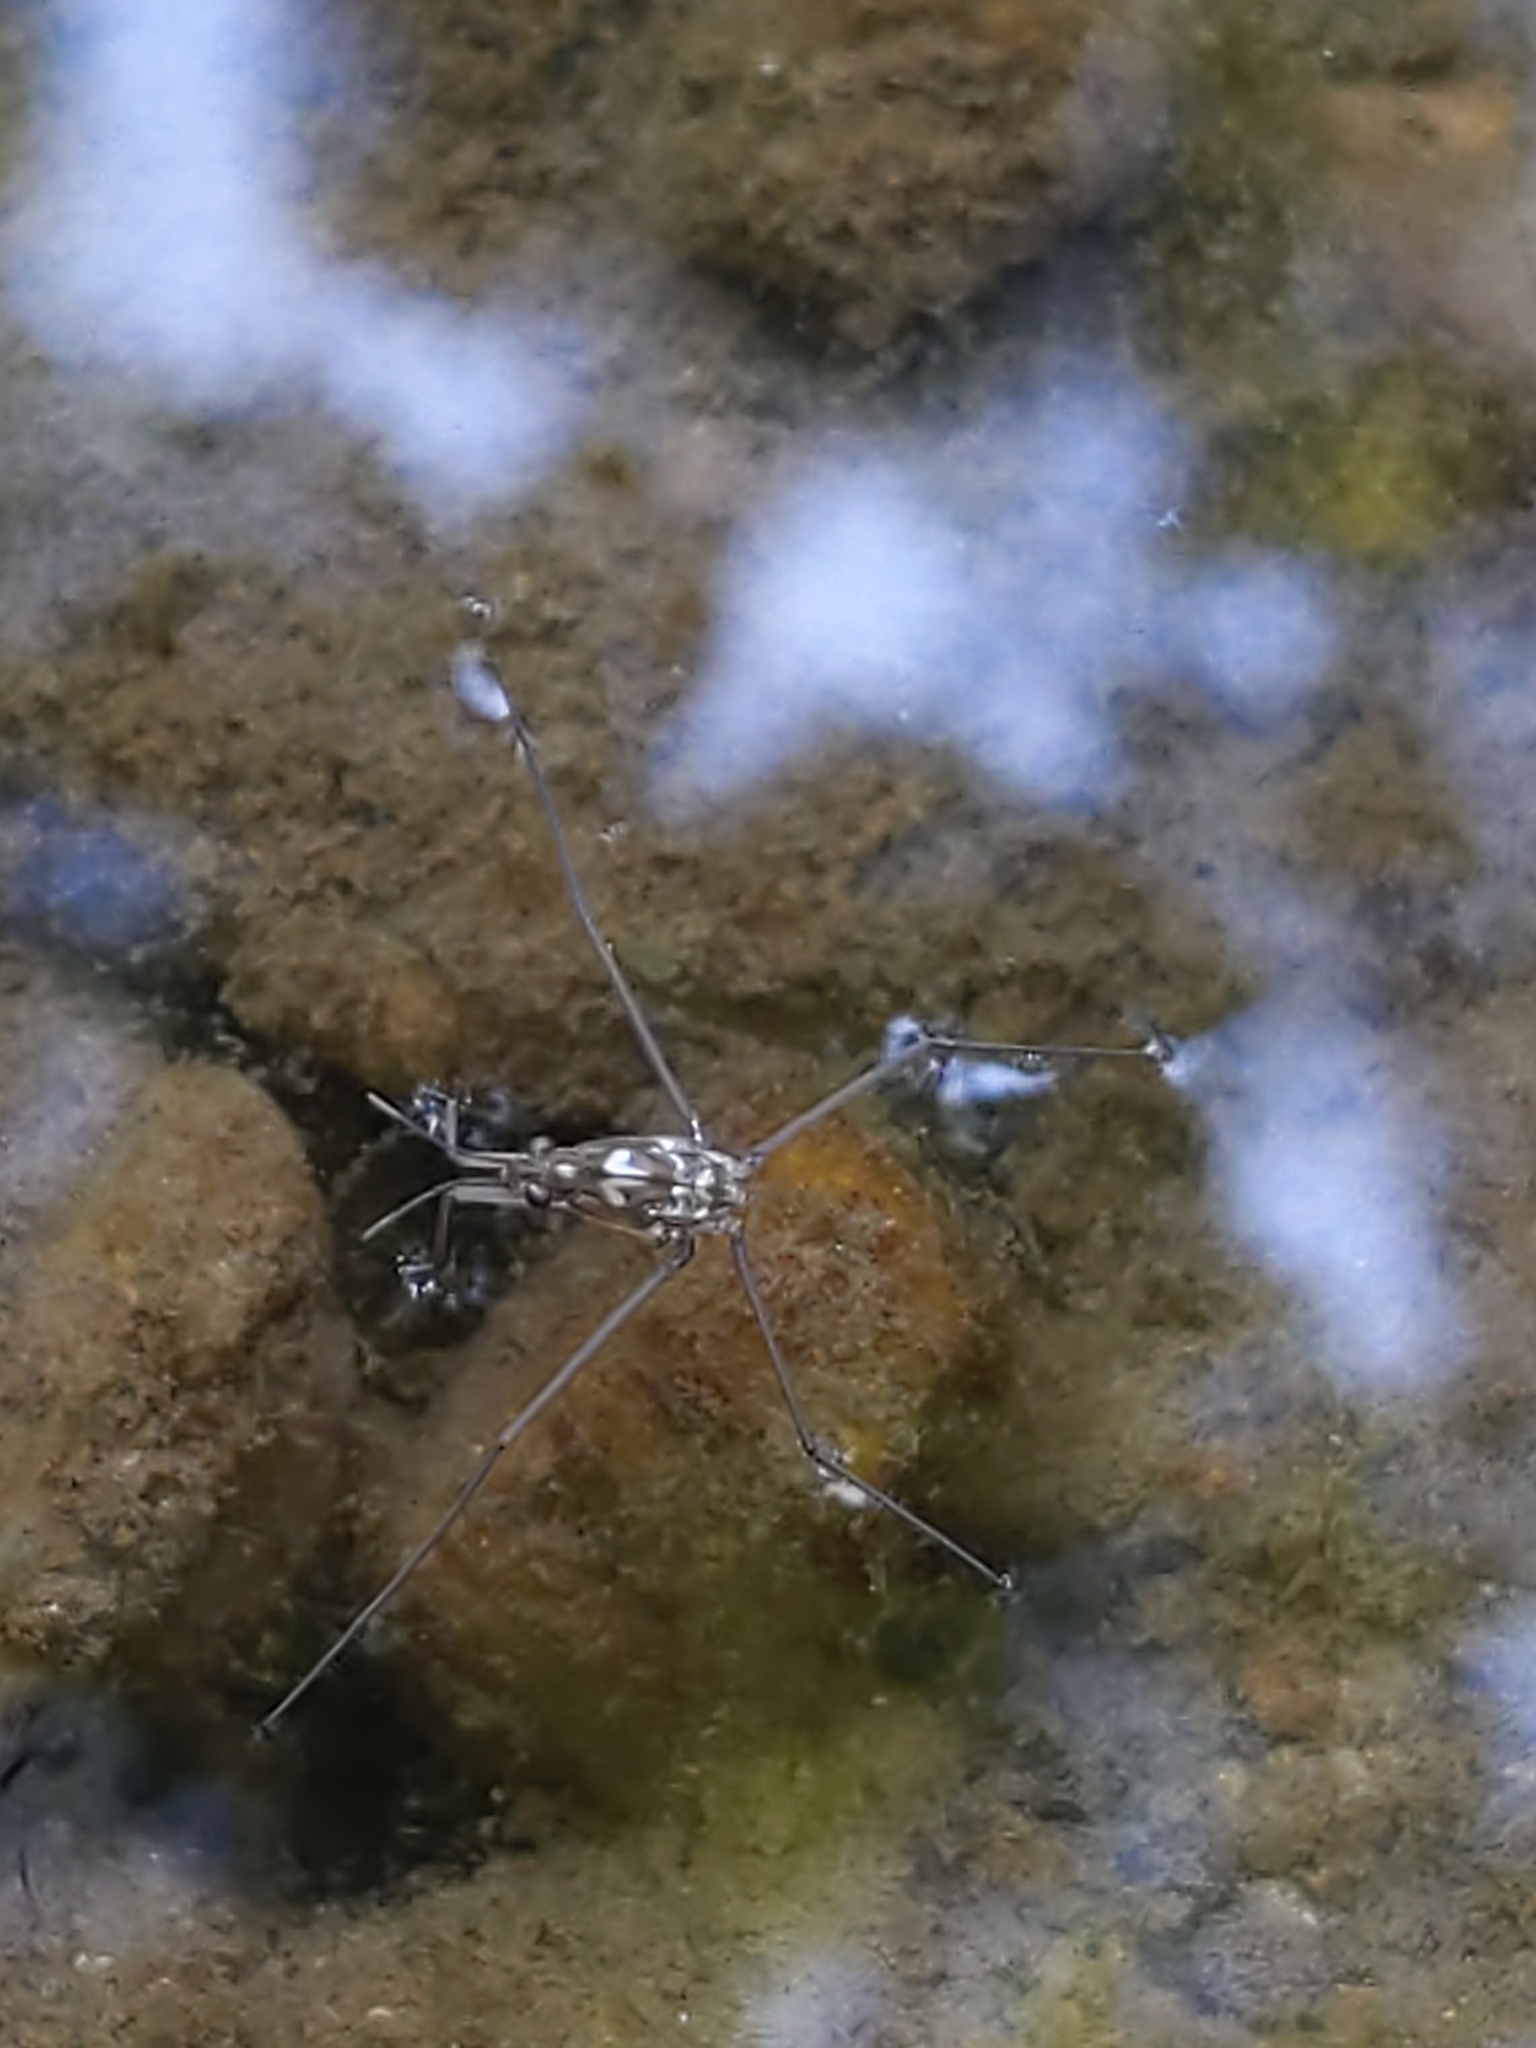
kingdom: Animalia
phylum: Arthropoda
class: Insecta
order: Hemiptera
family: Gerridae
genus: Aquarius
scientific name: Aquarius
